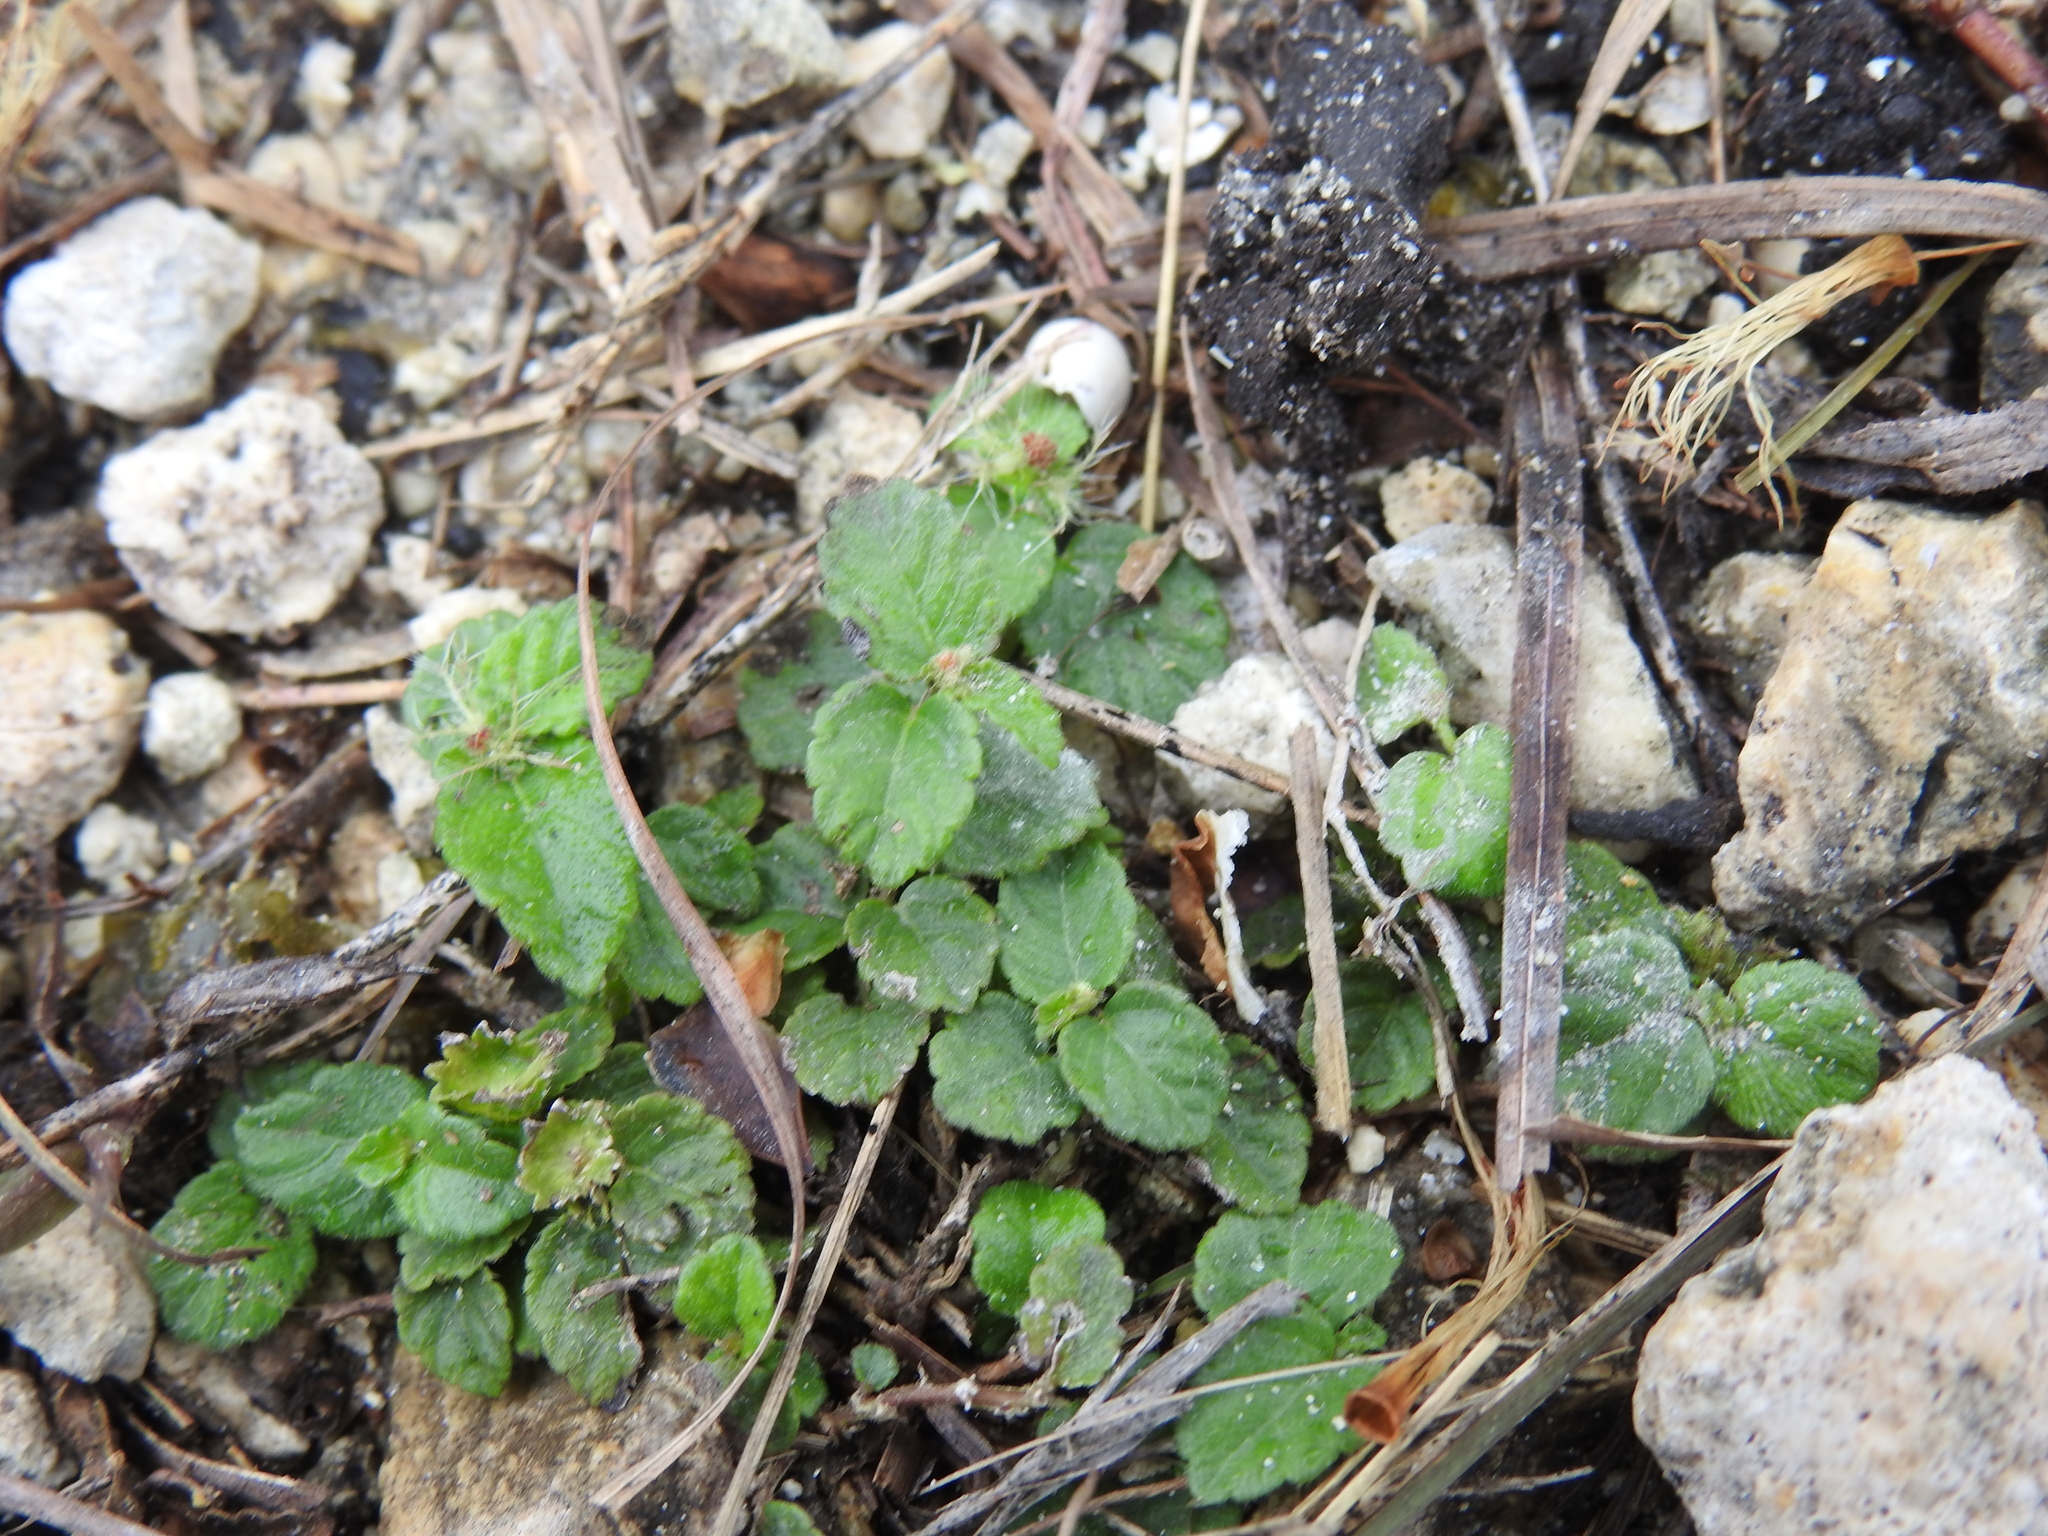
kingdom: Plantae
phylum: Tracheophyta
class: Magnoliopsida
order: Malpighiales
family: Euphorbiaceae
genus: Acalypha
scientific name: Acalypha chamaedrifolia
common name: Bastard copperleaf
